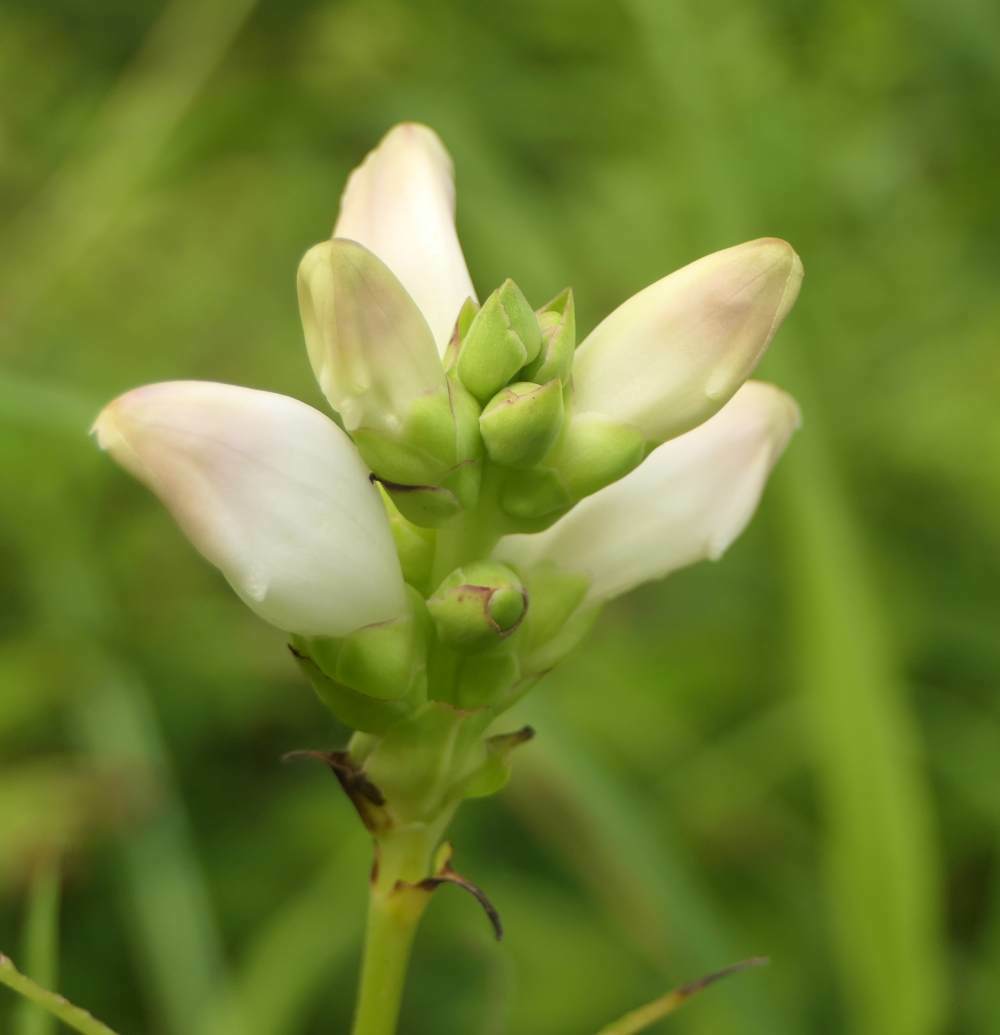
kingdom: Plantae
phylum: Tracheophyta
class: Magnoliopsida
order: Lamiales
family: Plantaginaceae
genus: Chelone
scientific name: Chelone glabra
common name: Snakehead
